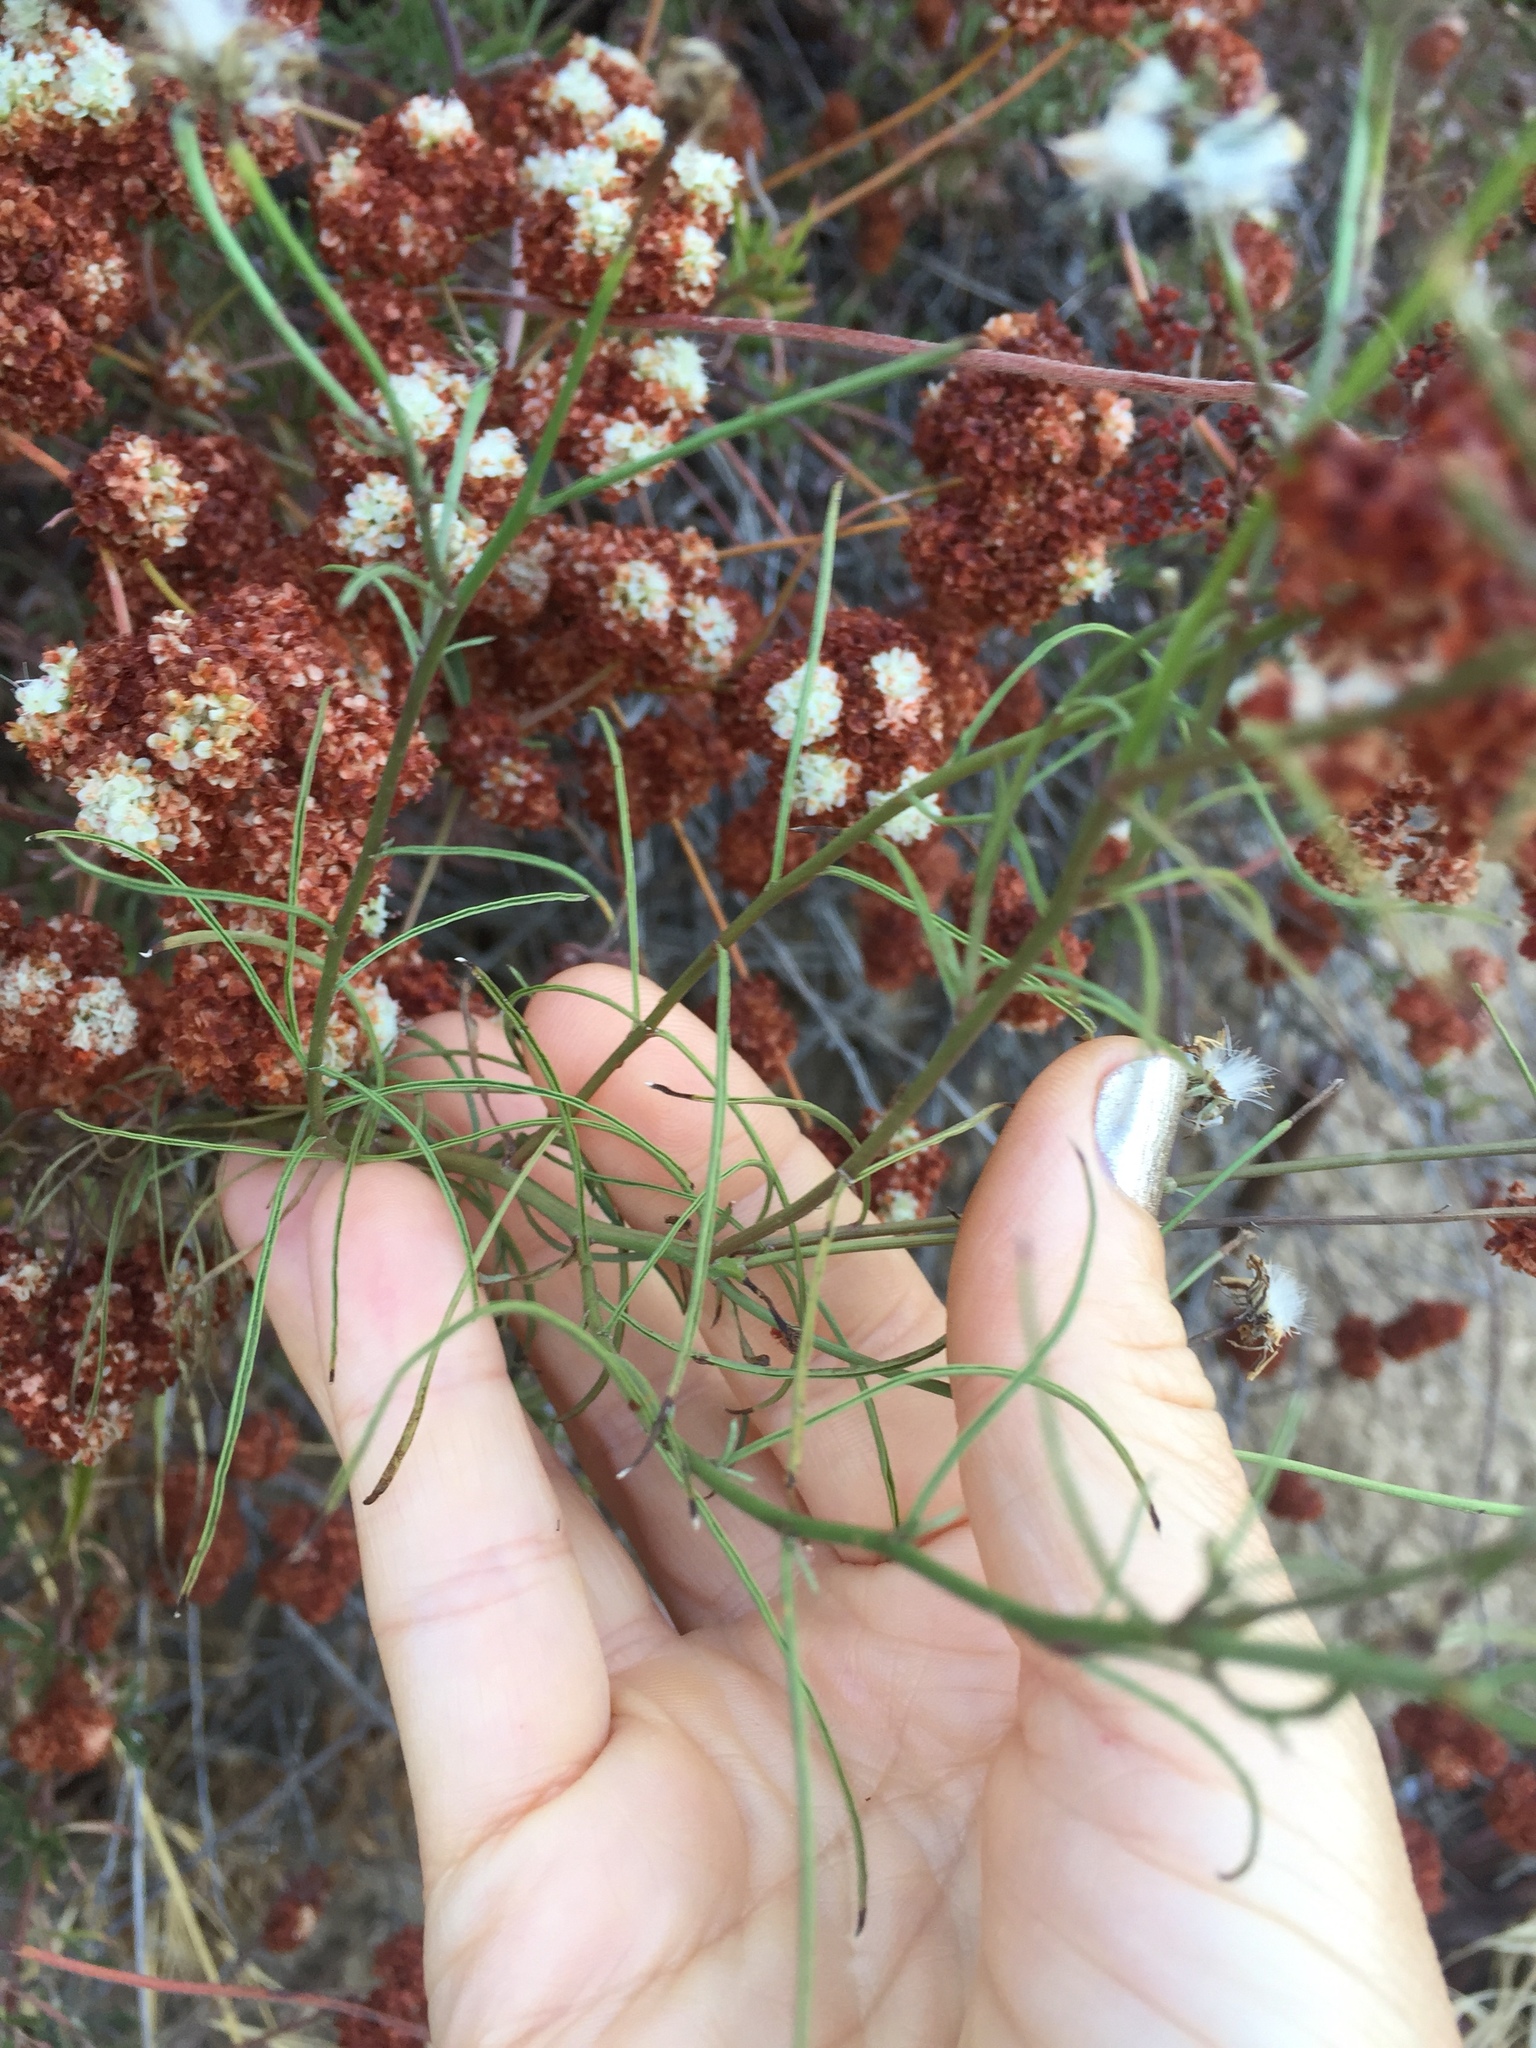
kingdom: Plantae
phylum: Tracheophyta
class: Magnoliopsida
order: Caryophyllales
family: Polygonaceae
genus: Eriogonum
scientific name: Eriogonum fasciculatum
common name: California wild buckwheat
